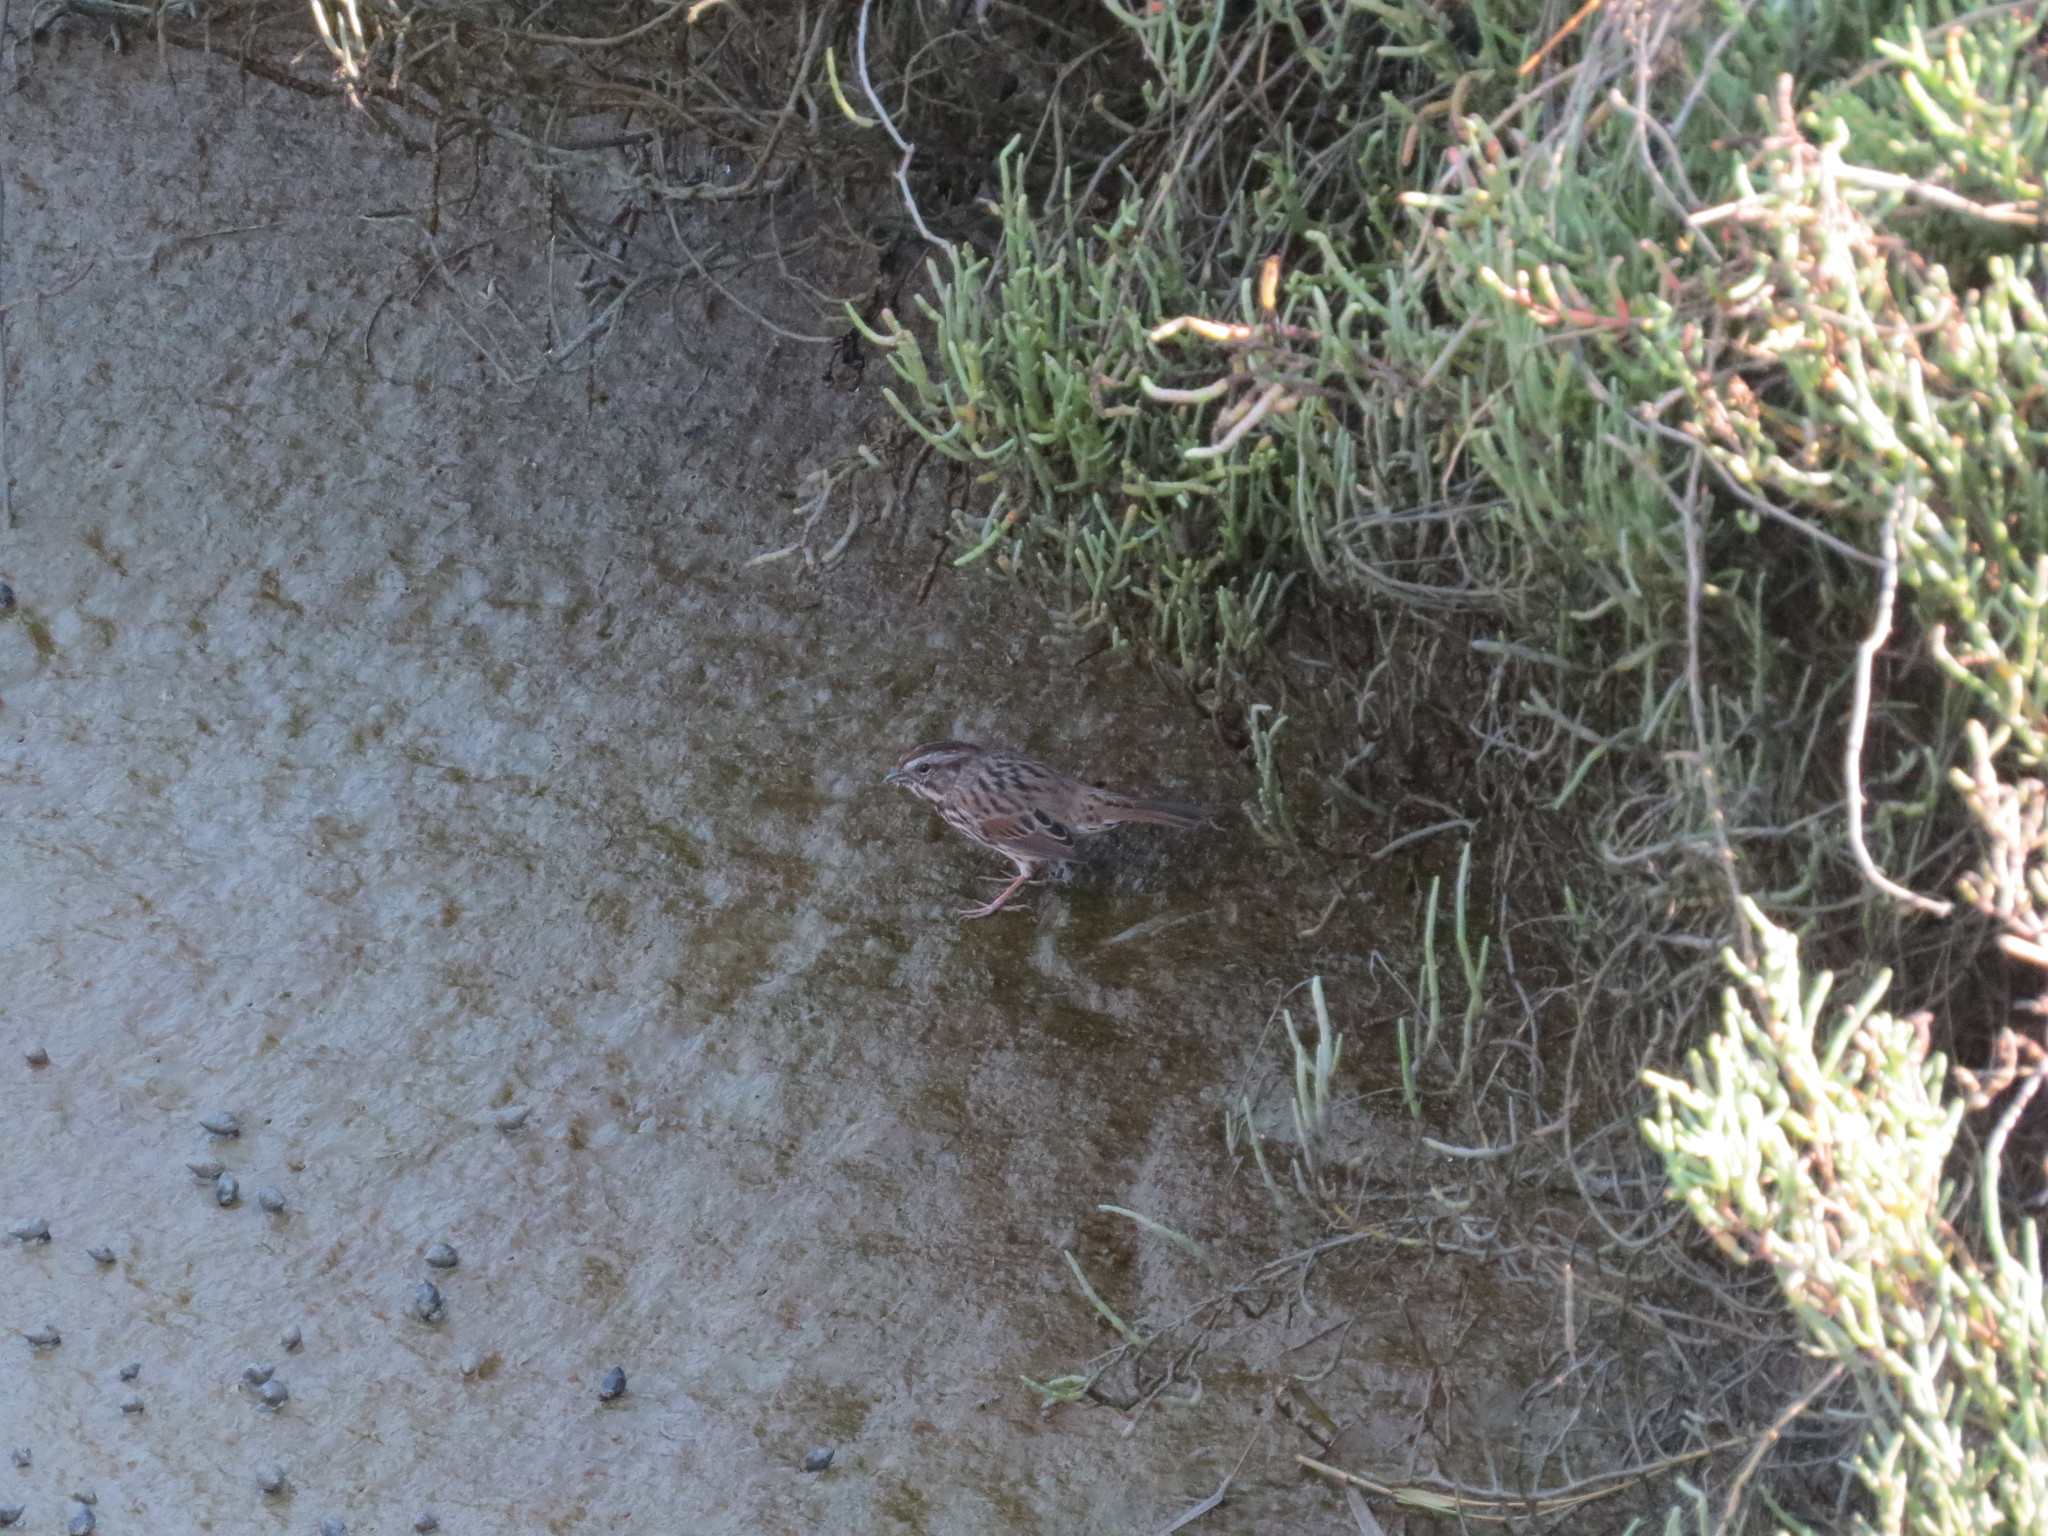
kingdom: Animalia
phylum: Chordata
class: Aves
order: Passeriformes
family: Passerellidae
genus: Melospiza
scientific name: Melospiza melodia
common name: Song sparrow
